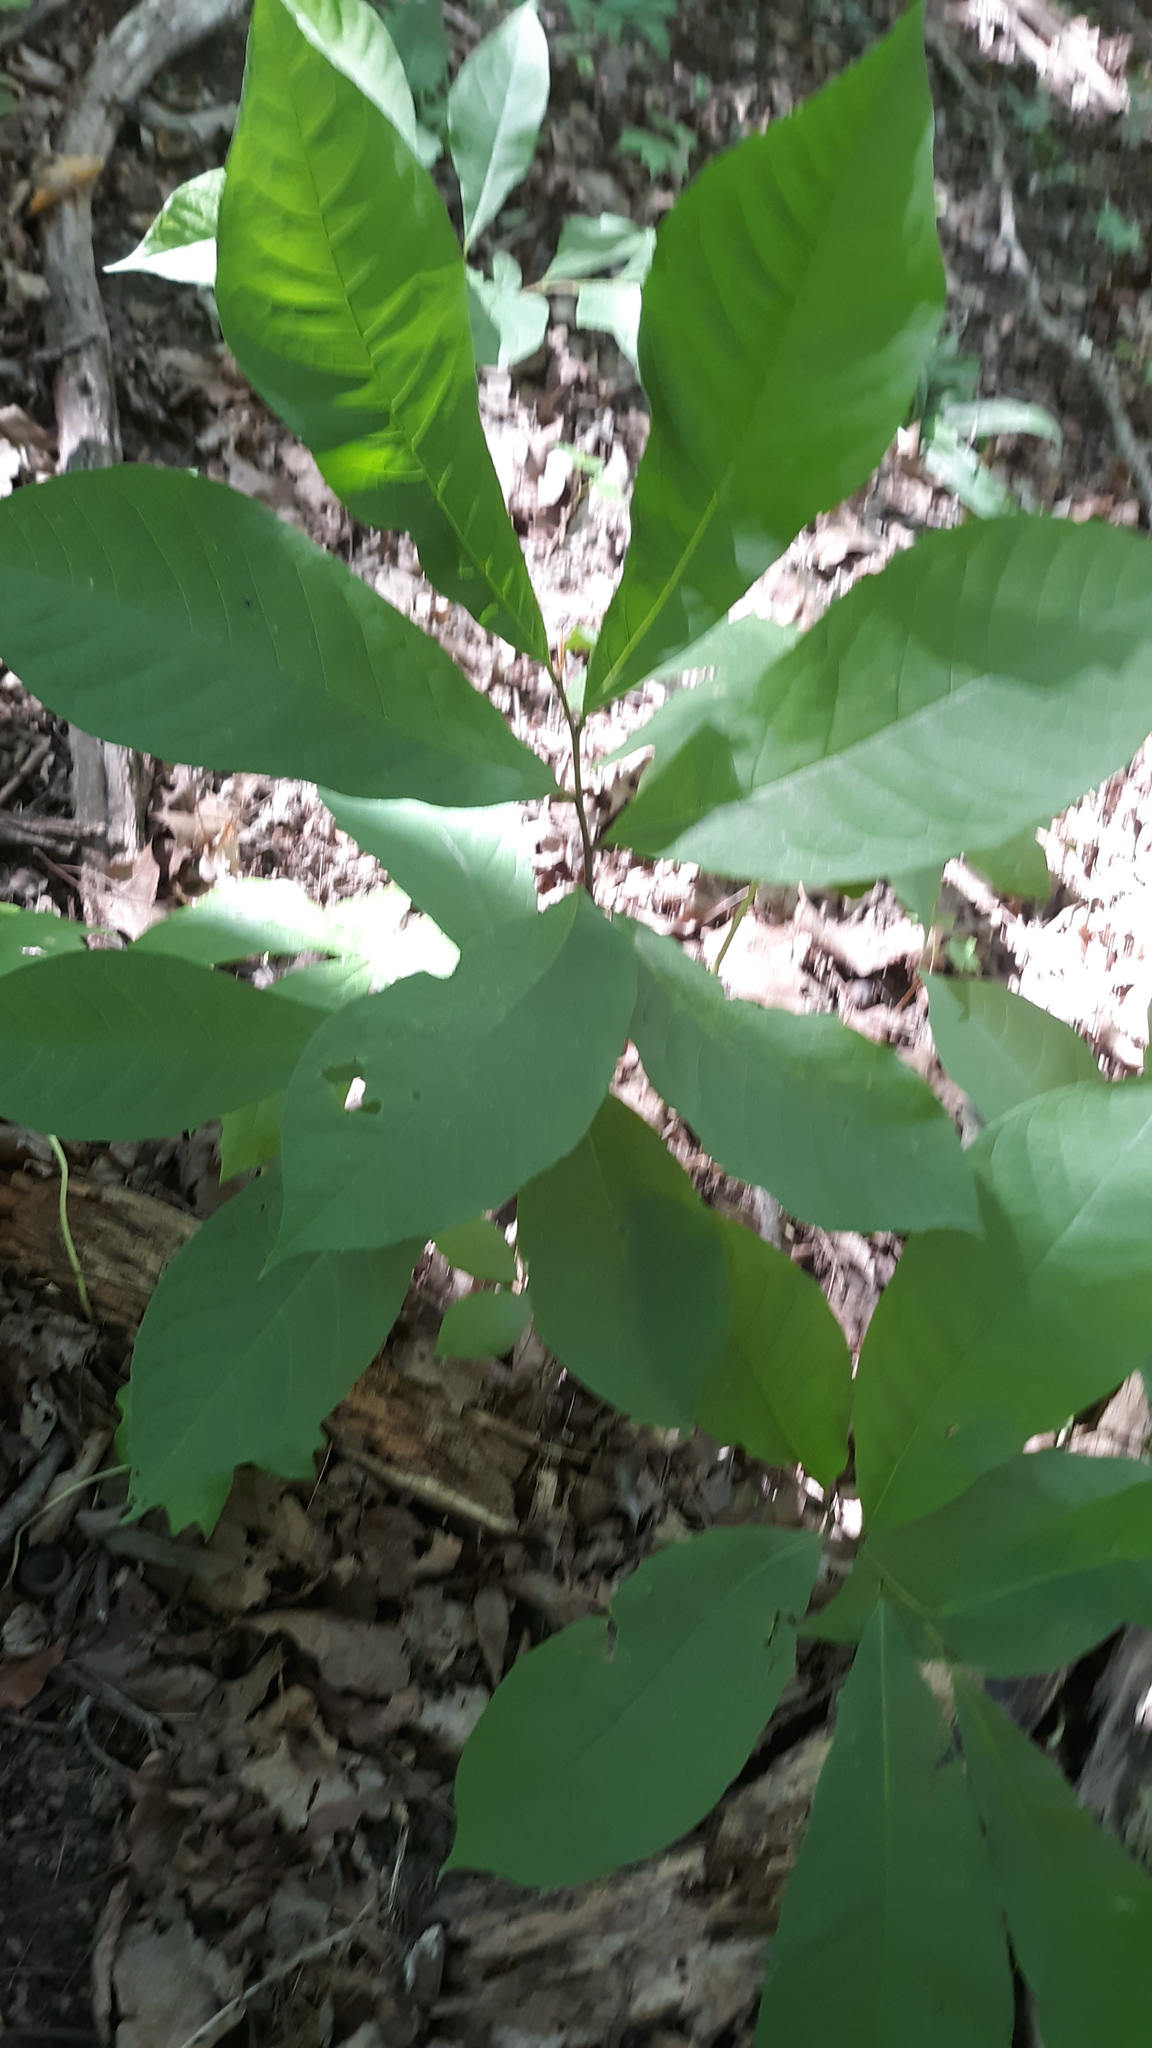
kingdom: Plantae
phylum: Tracheophyta
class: Magnoliopsida
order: Magnoliales
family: Annonaceae
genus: Asimina
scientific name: Asimina triloba
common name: Dog-banana
